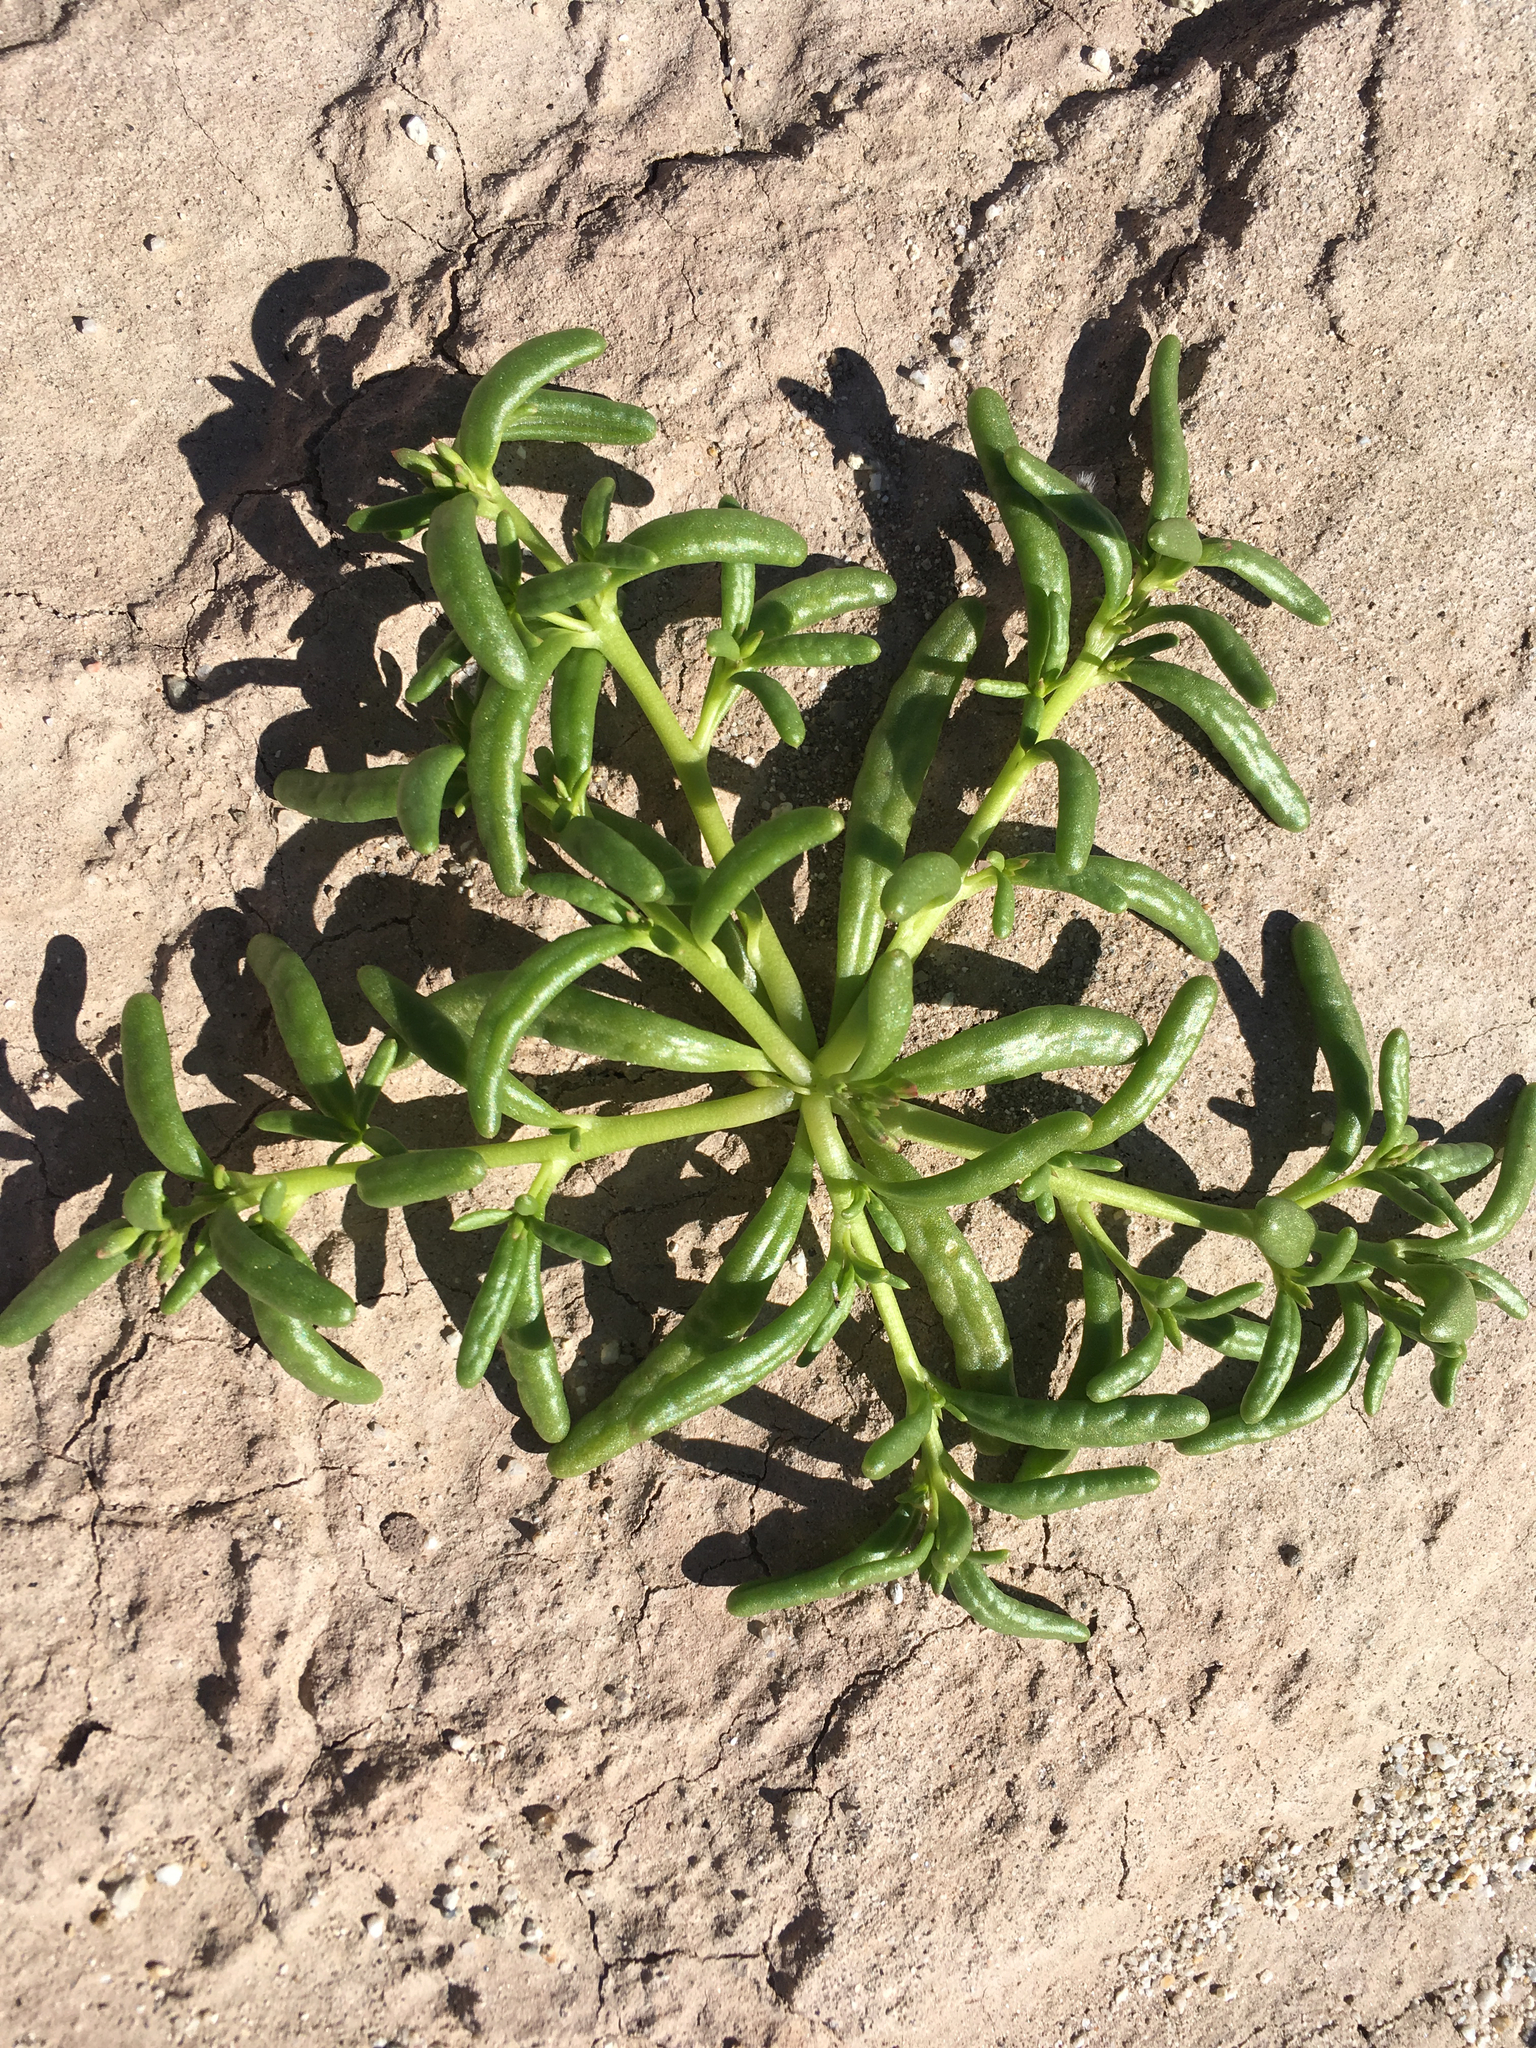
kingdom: Plantae
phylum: Tracheophyta
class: Magnoliopsida
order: Caryophyllales
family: Montiaceae
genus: Thingia
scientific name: Thingia ambigua
